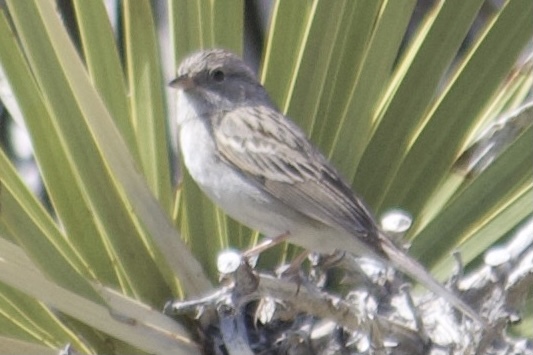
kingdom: Animalia
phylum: Chordata
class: Aves
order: Passeriformes
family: Passerellidae
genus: Spizella
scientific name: Spizella breweri
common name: Brewer's sparrow
